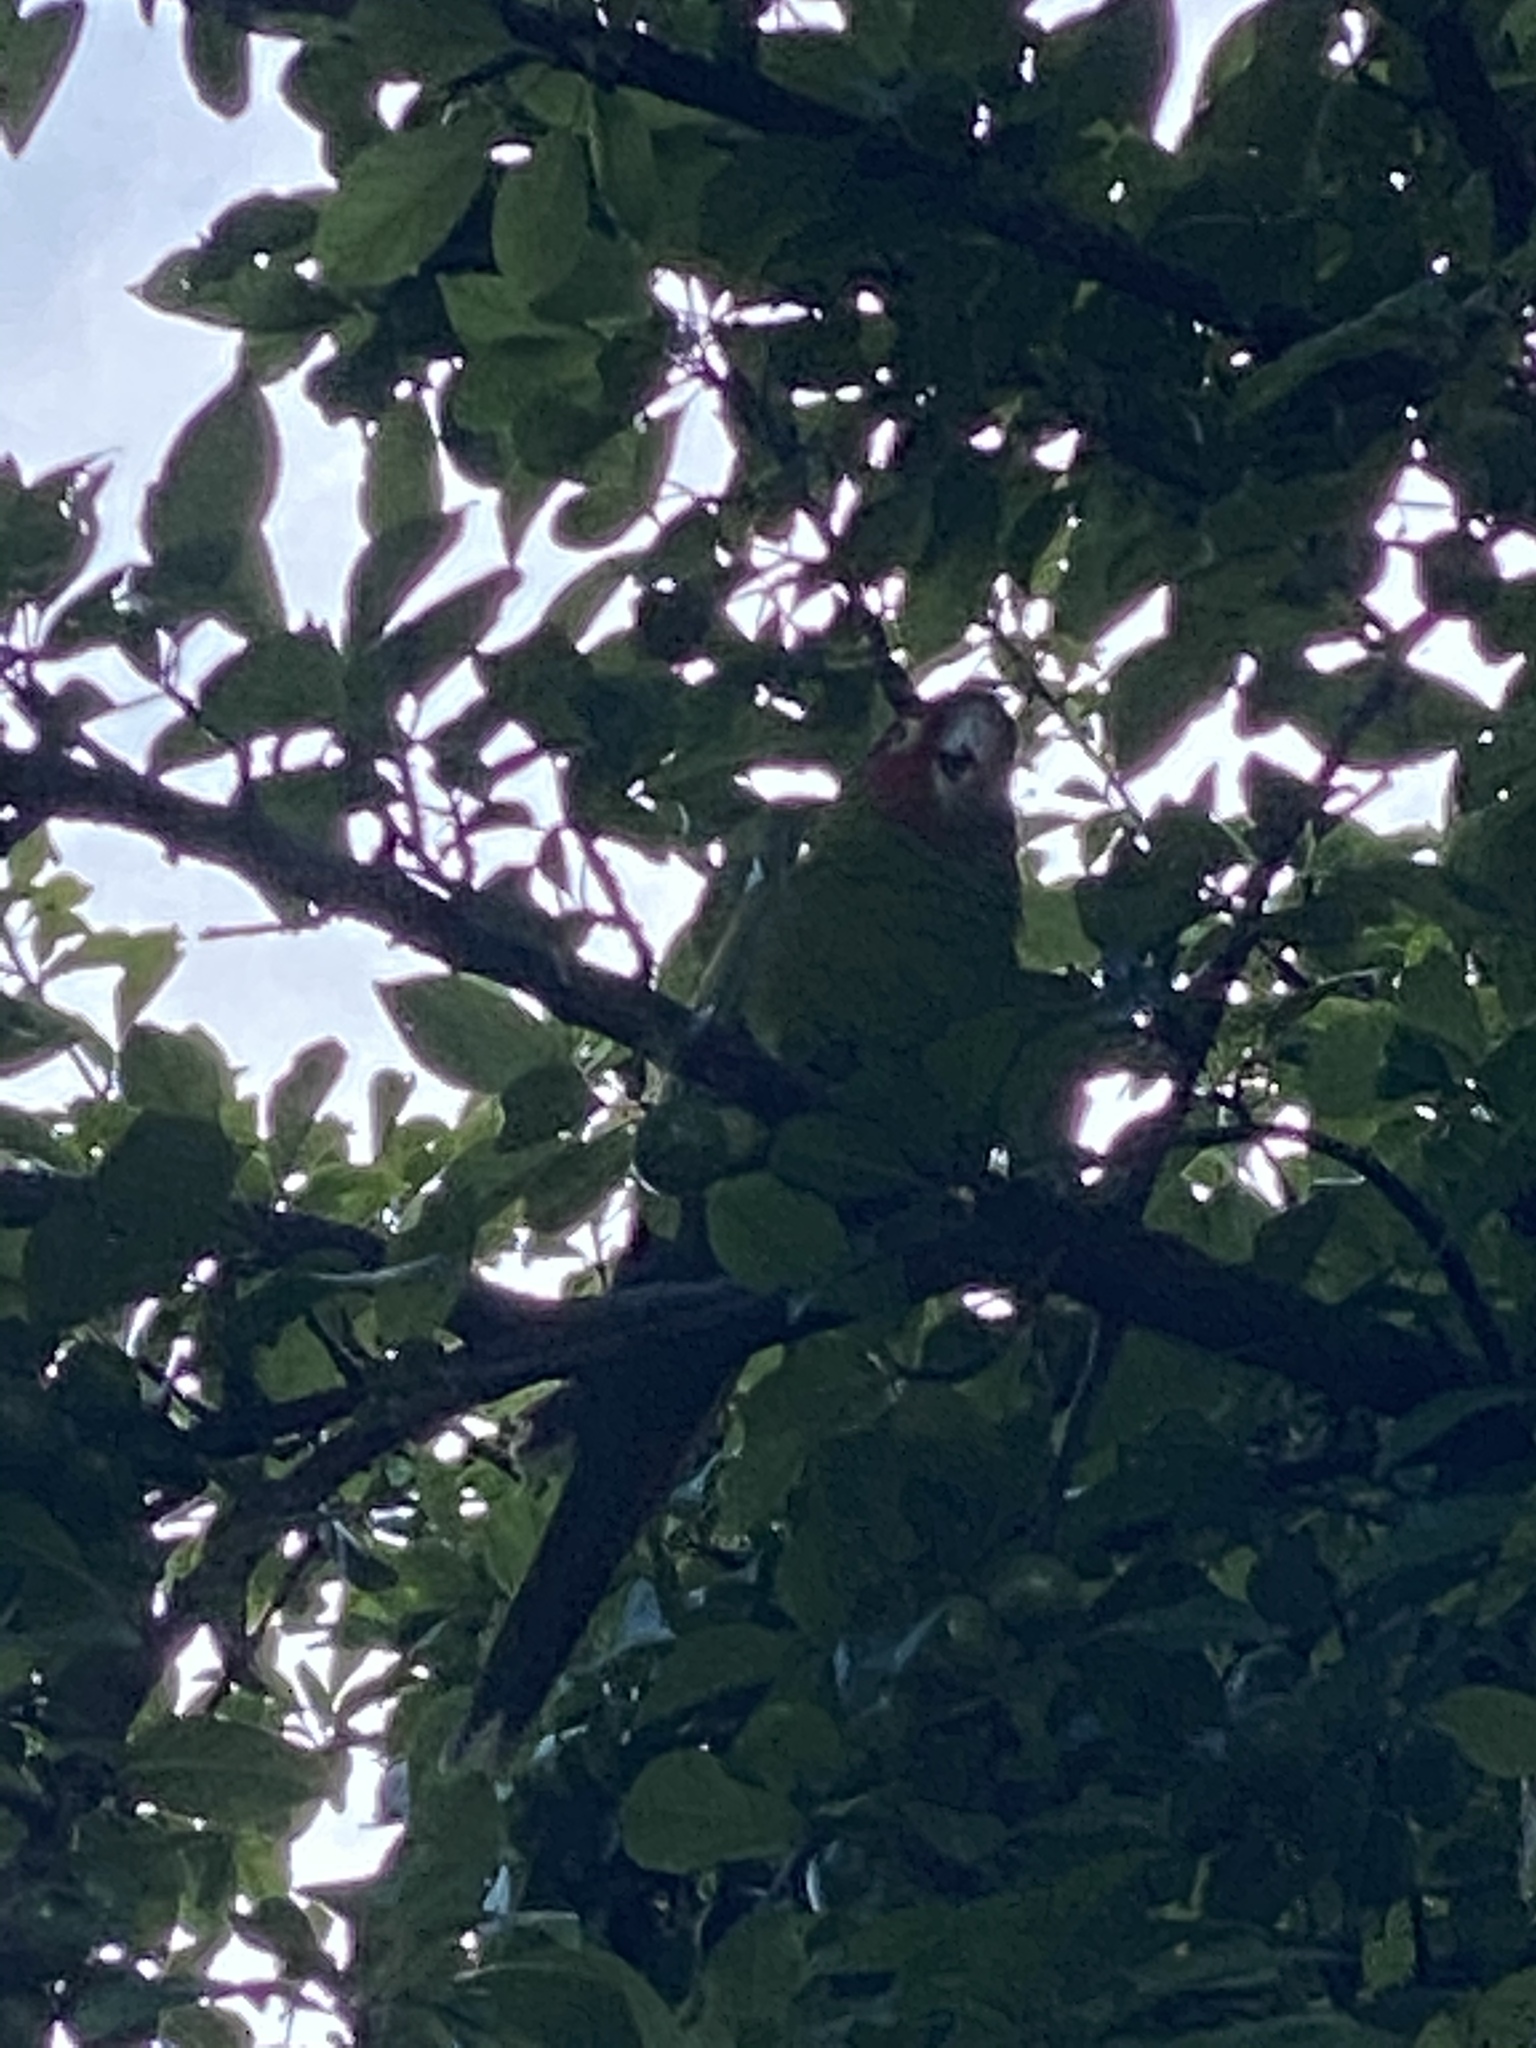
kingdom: Animalia
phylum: Chordata
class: Aves
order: Psittaciformes
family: Psittacidae
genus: Aratinga
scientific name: Aratinga erythrogenys
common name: Red-masked parakeet
